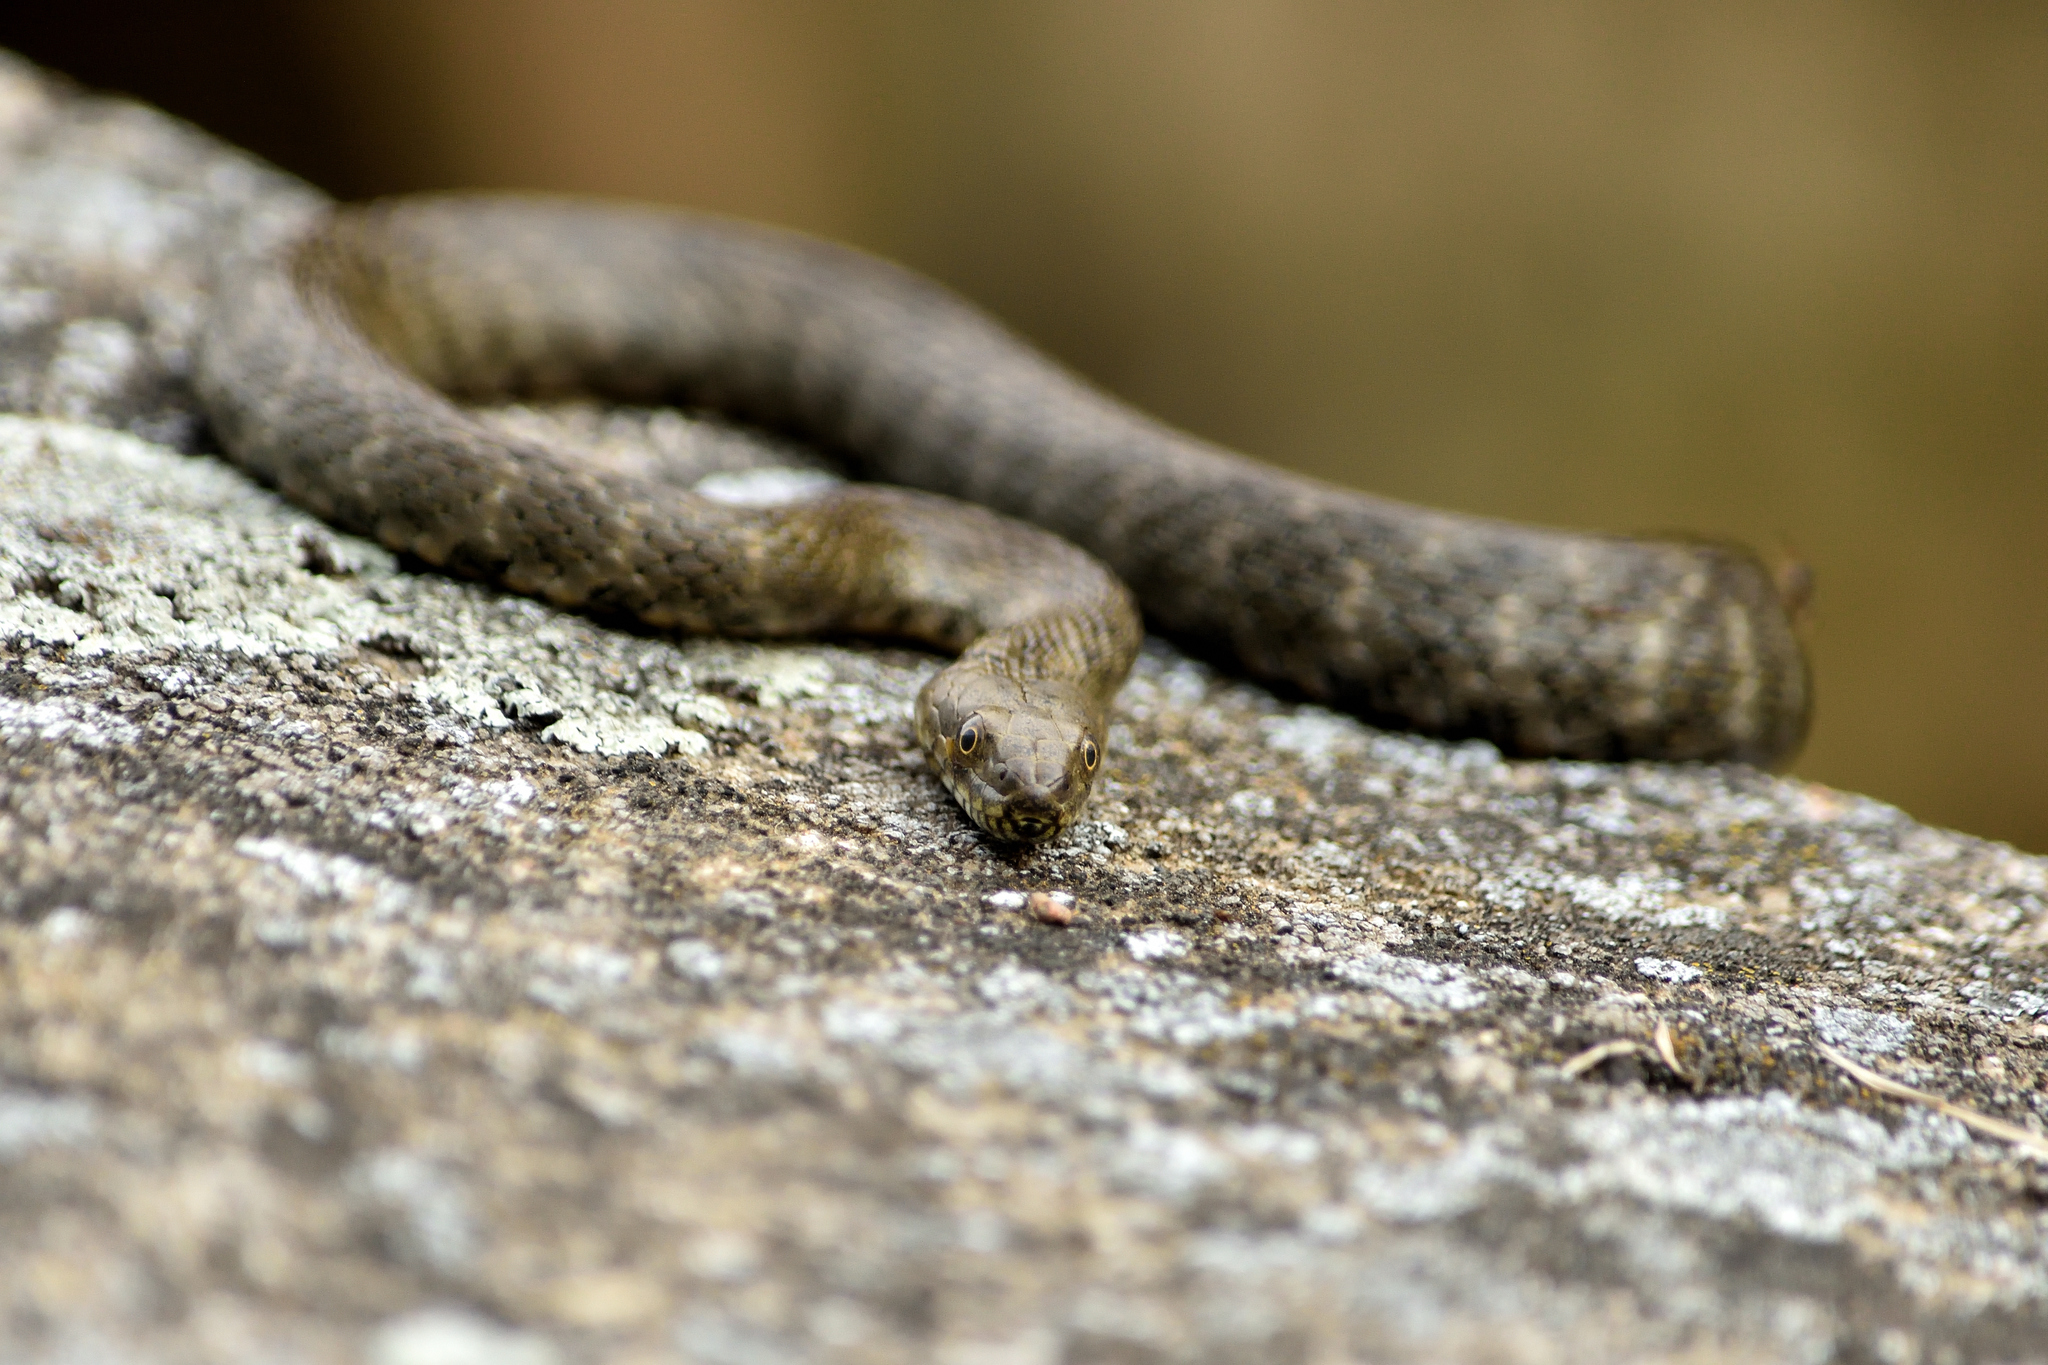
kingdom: Animalia
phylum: Chordata
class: Squamata
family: Colubridae
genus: Natrix
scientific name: Natrix tessellata
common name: Dice snake
